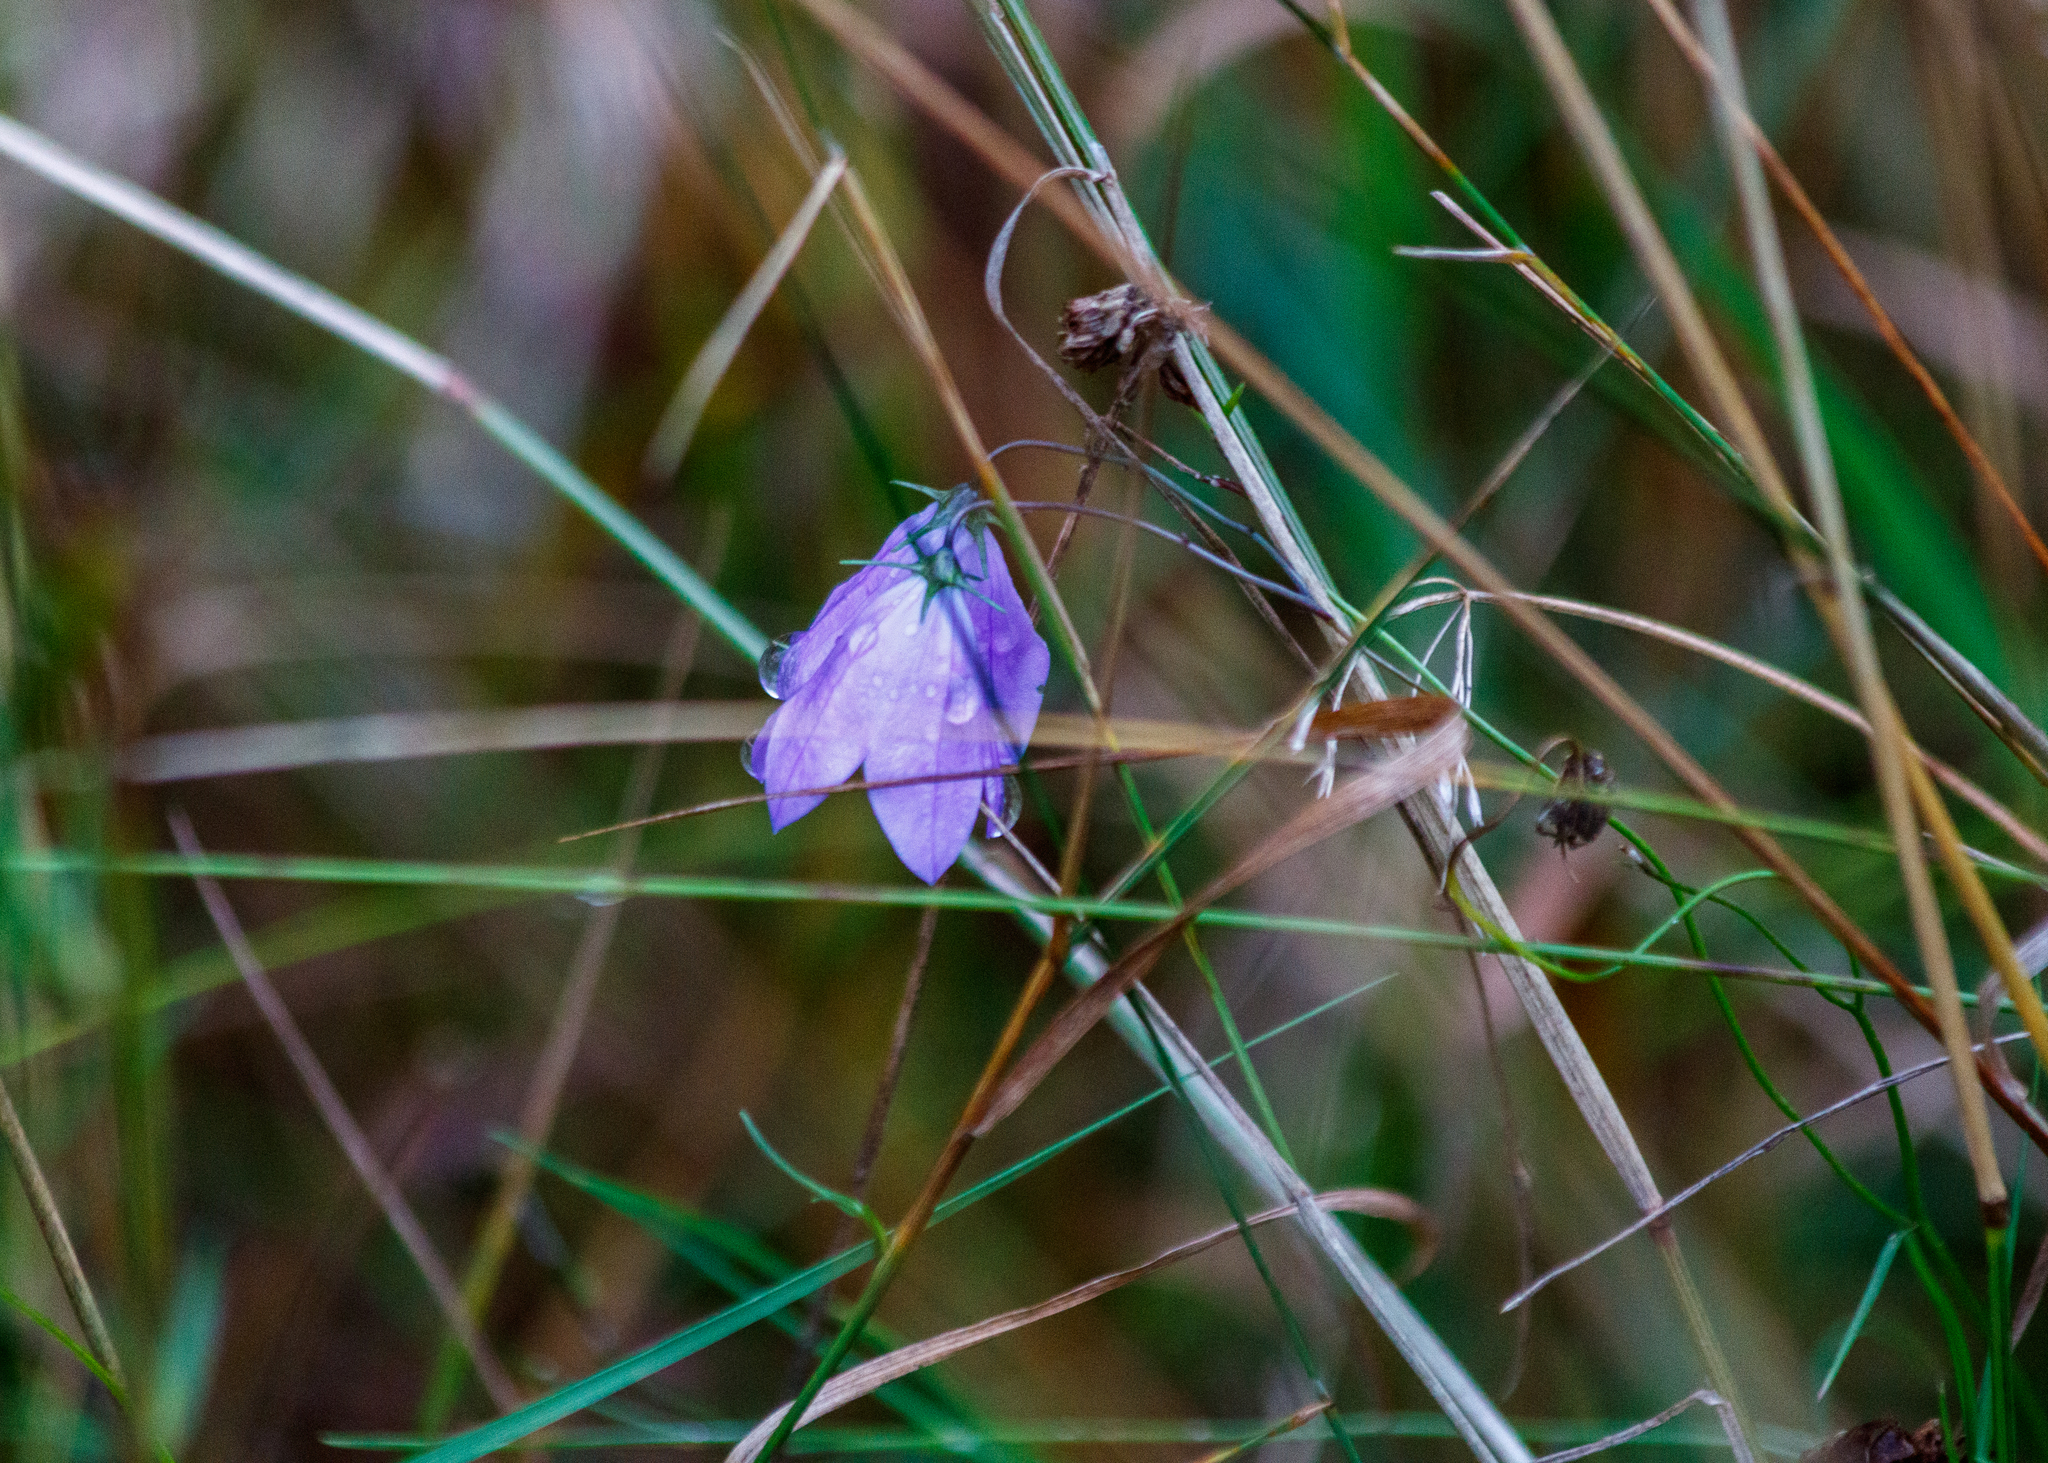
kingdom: Plantae
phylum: Tracheophyta
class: Magnoliopsida
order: Asterales
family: Campanulaceae
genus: Campanula
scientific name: Campanula rotundifolia
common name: Harebell
